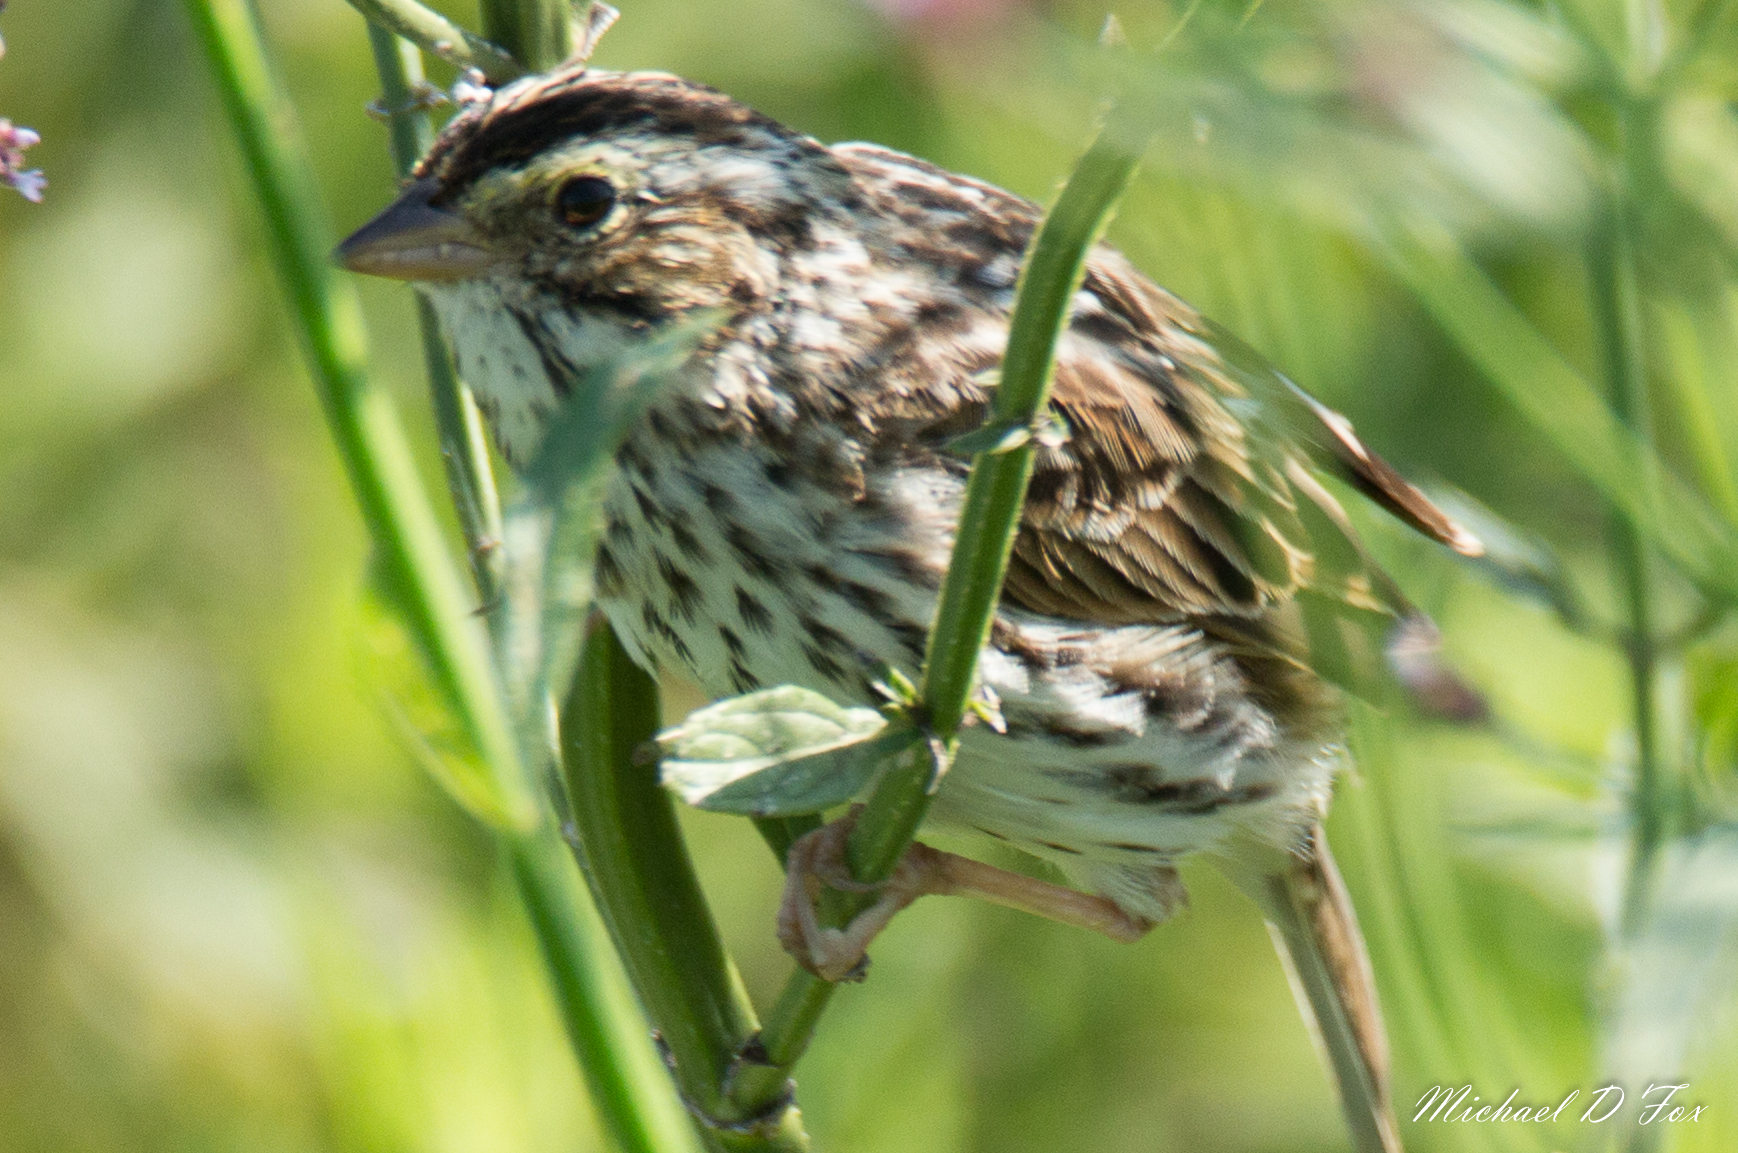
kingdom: Animalia
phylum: Chordata
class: Aves
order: Passeriformes
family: Passerellidae
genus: Passerculus
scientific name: Passerculus sandwichensis
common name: Savannah sparrow
